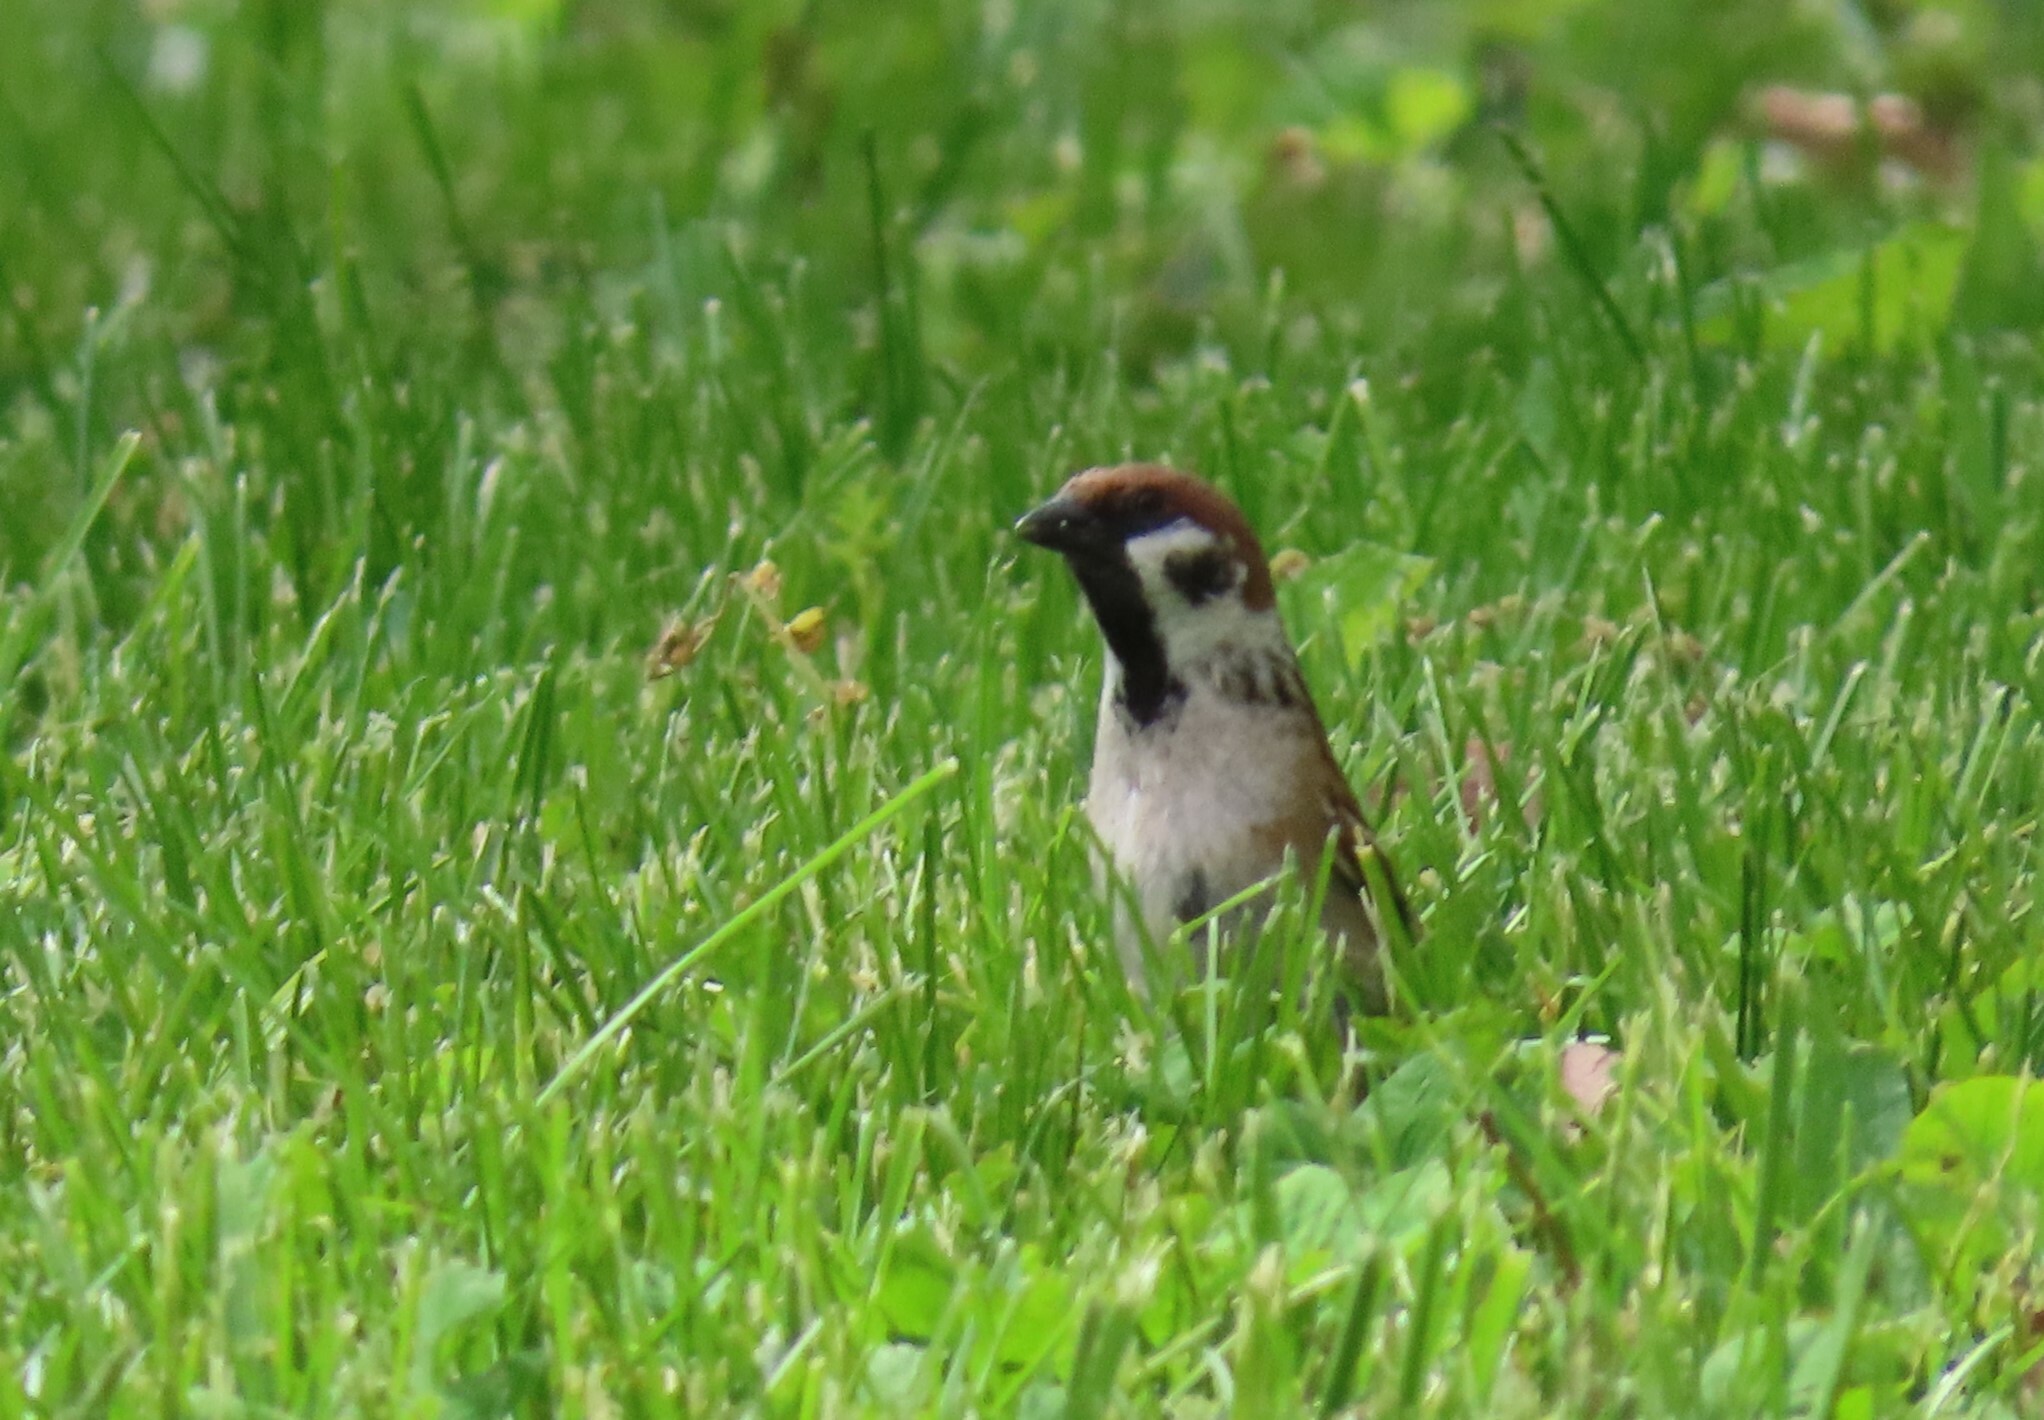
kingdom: Animalia
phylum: Chordata
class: Aves
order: Passeriformes
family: Passeridae
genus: Passer
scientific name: Passer montanus
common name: Eurasian tree sparrow
